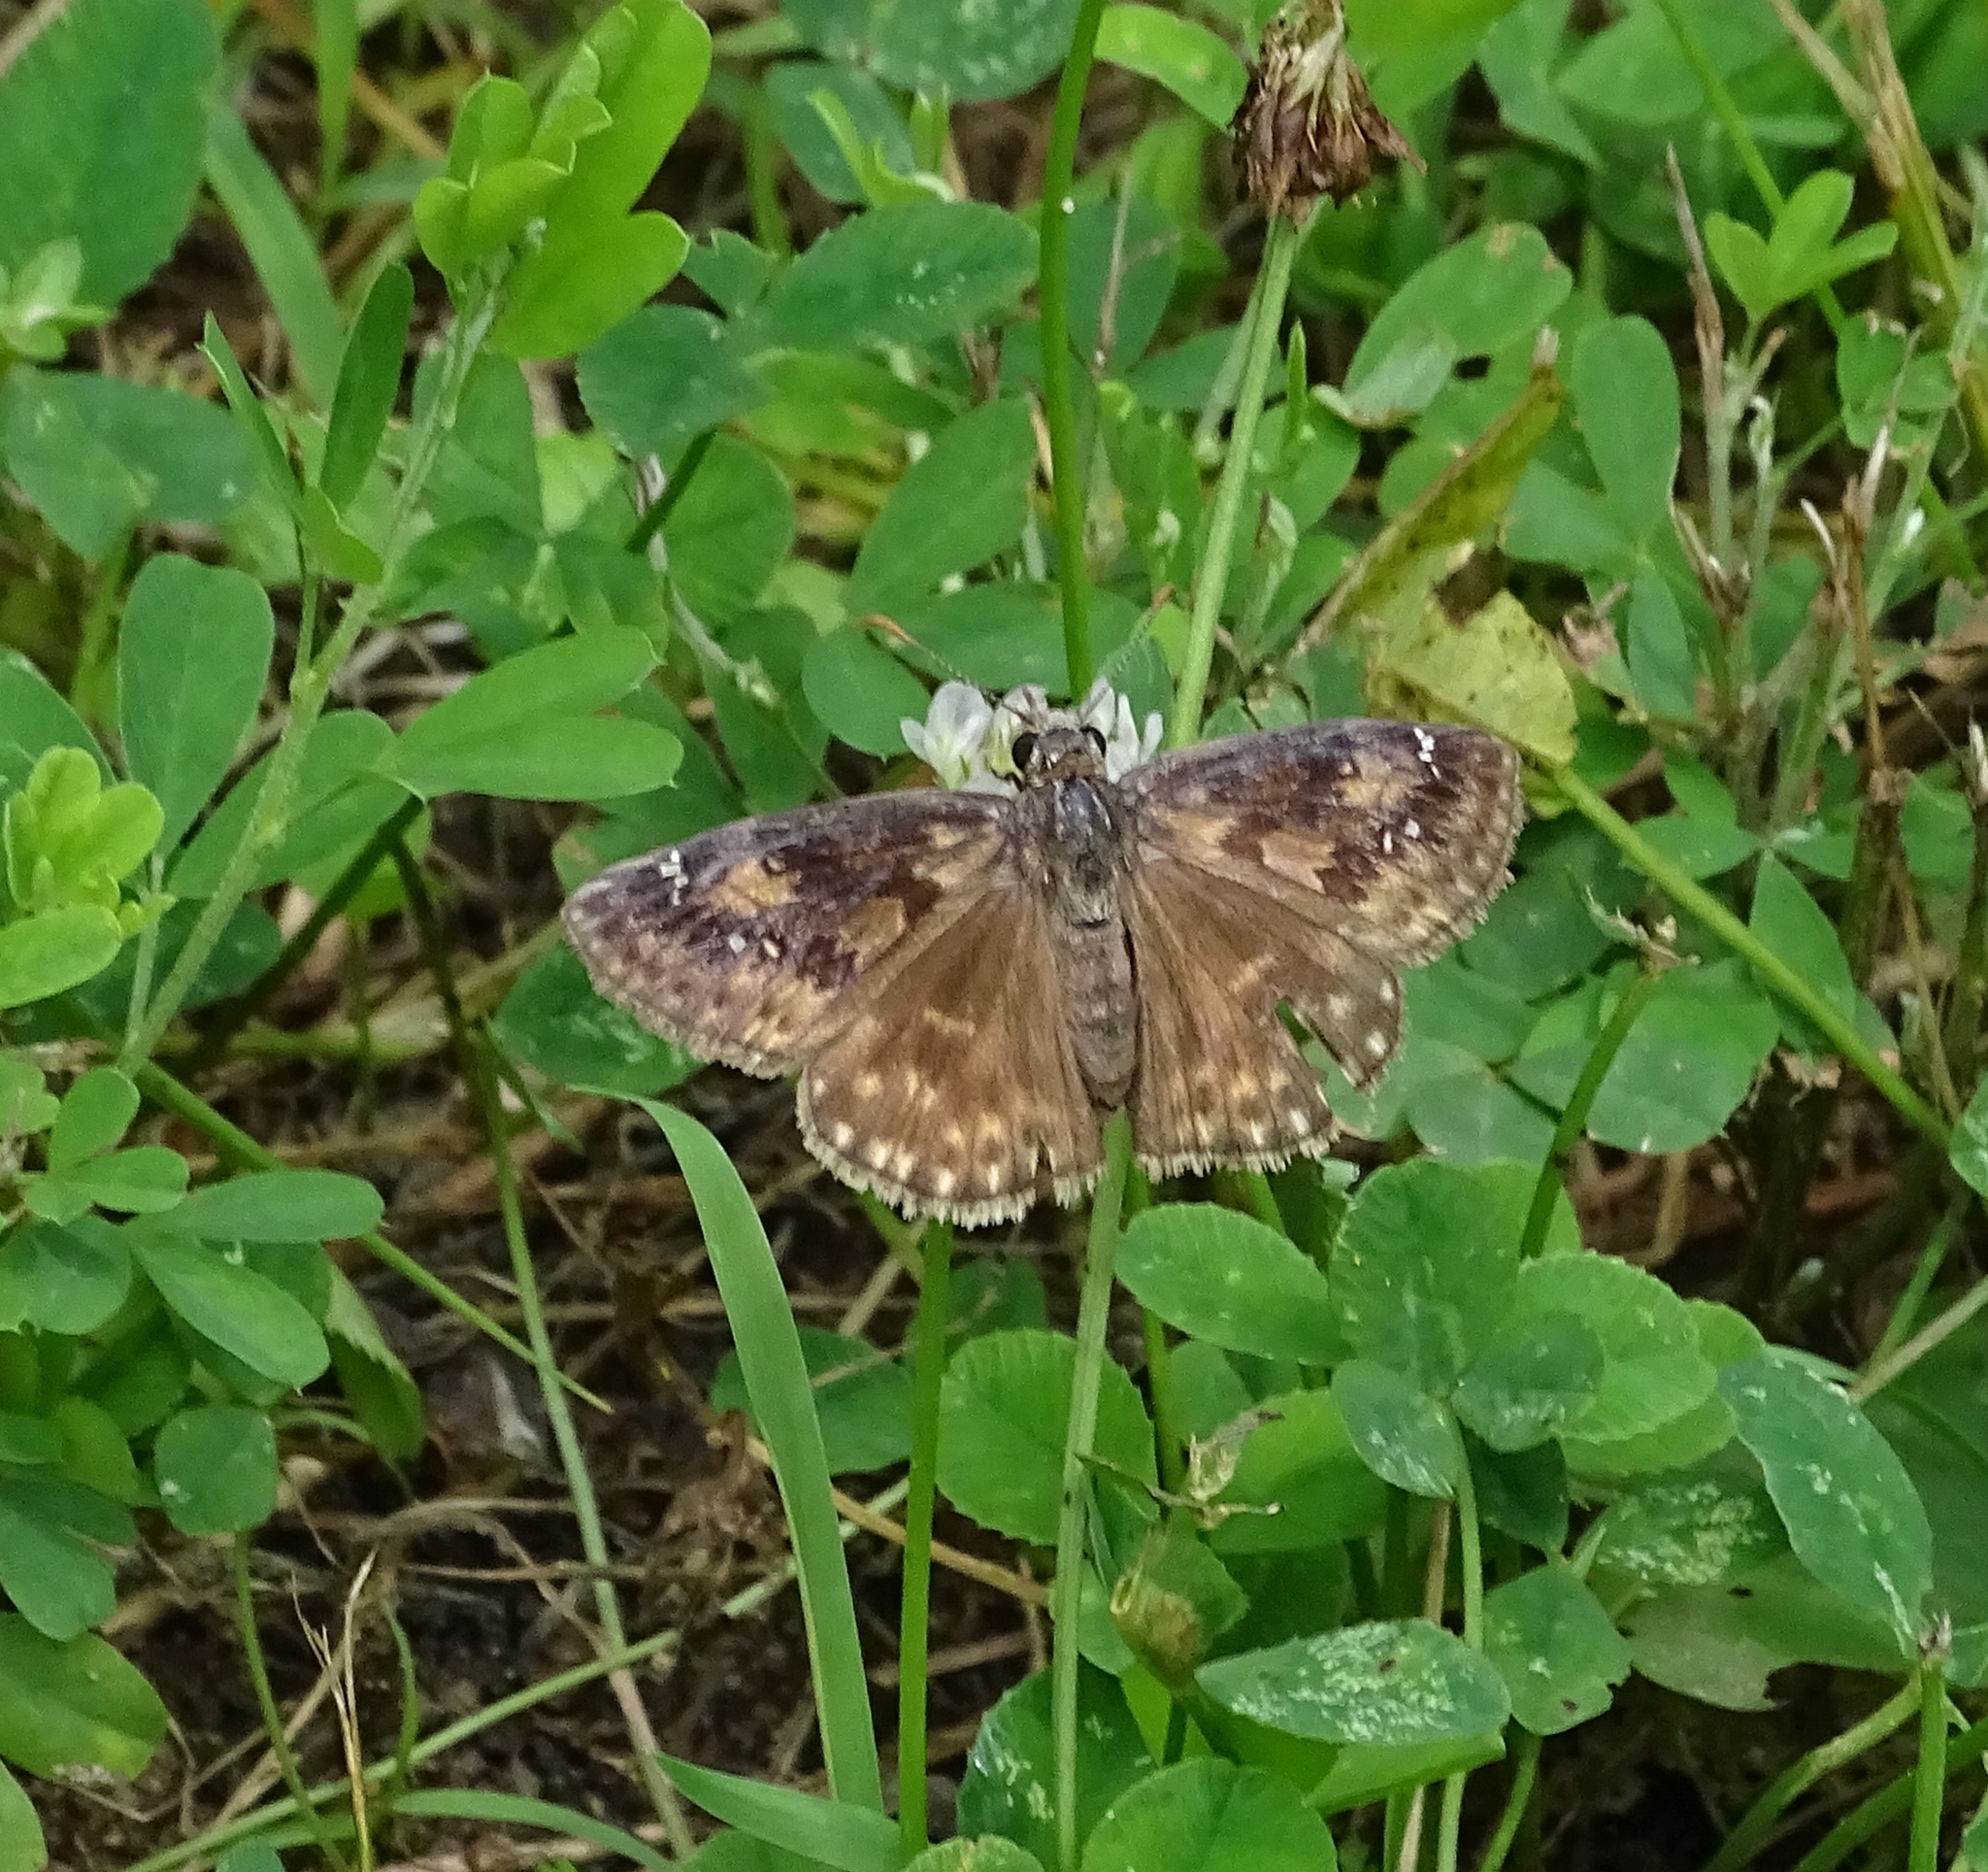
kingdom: Animalia
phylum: Arthropoda
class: Insecta
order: Lepidoptera
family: Hesperiidae
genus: Erynnis
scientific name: Erynnis baptisiae
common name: Wild indigo duskywing
